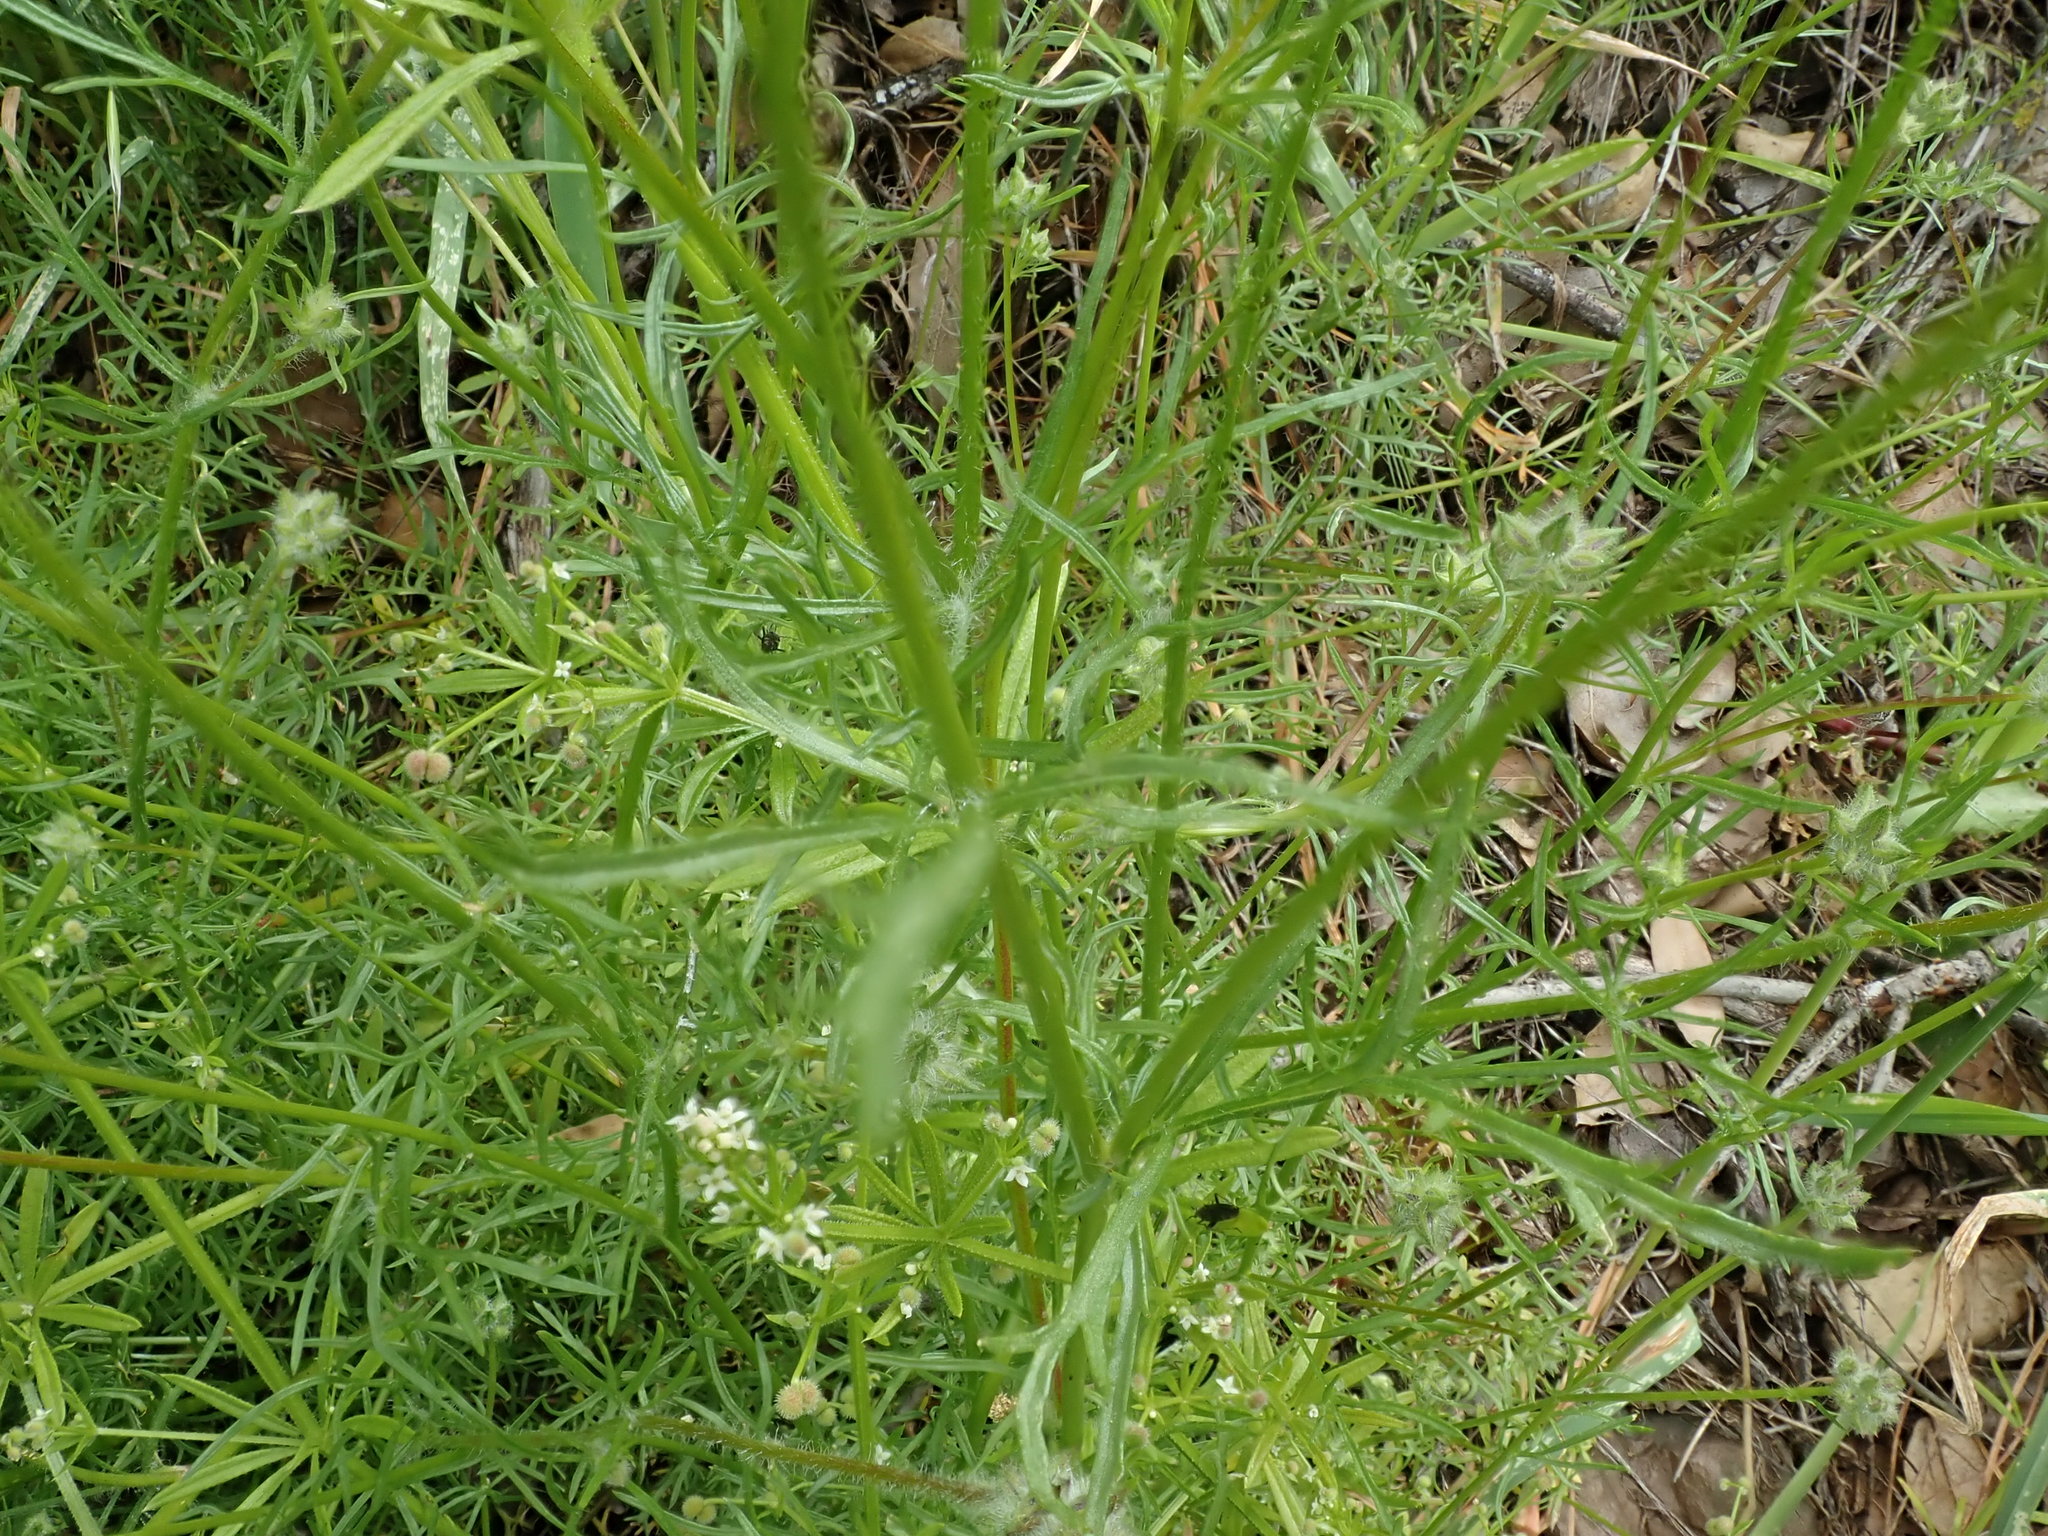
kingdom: Plantae
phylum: Tracheophyta
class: Magnoliopsida
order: Ericales
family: Polemoniaceae
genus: Gilia
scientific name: Gilia achilleifolia
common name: California gily-flower
